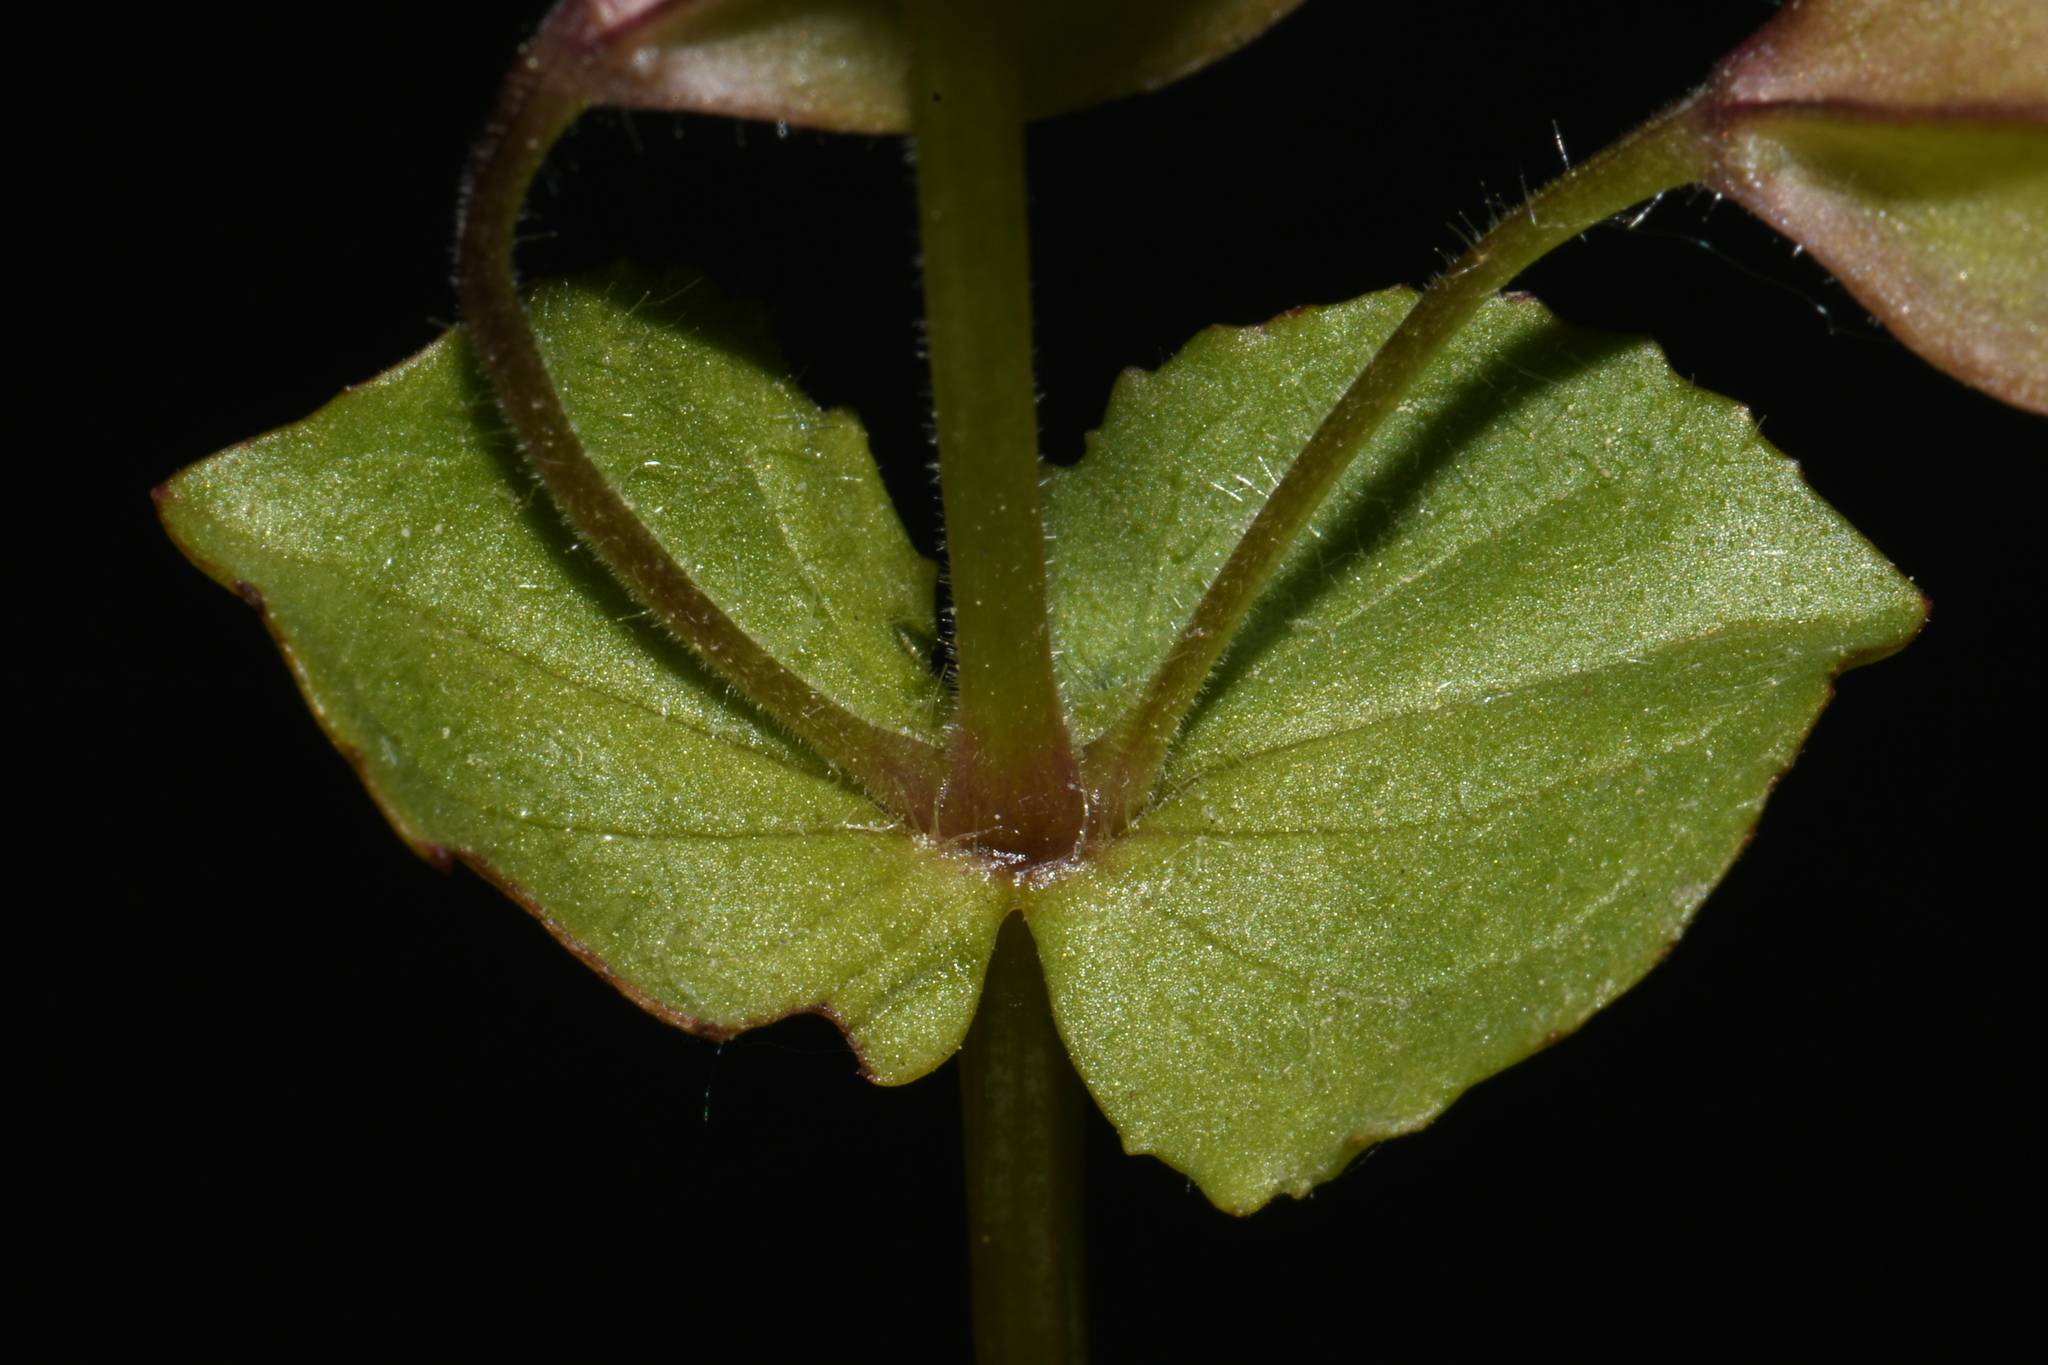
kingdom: Plantae
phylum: Tracheophyta
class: Magnoliopsida
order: Lamiales
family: Phrymaceae
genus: Erythranthe
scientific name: Erythranthe thermalis
